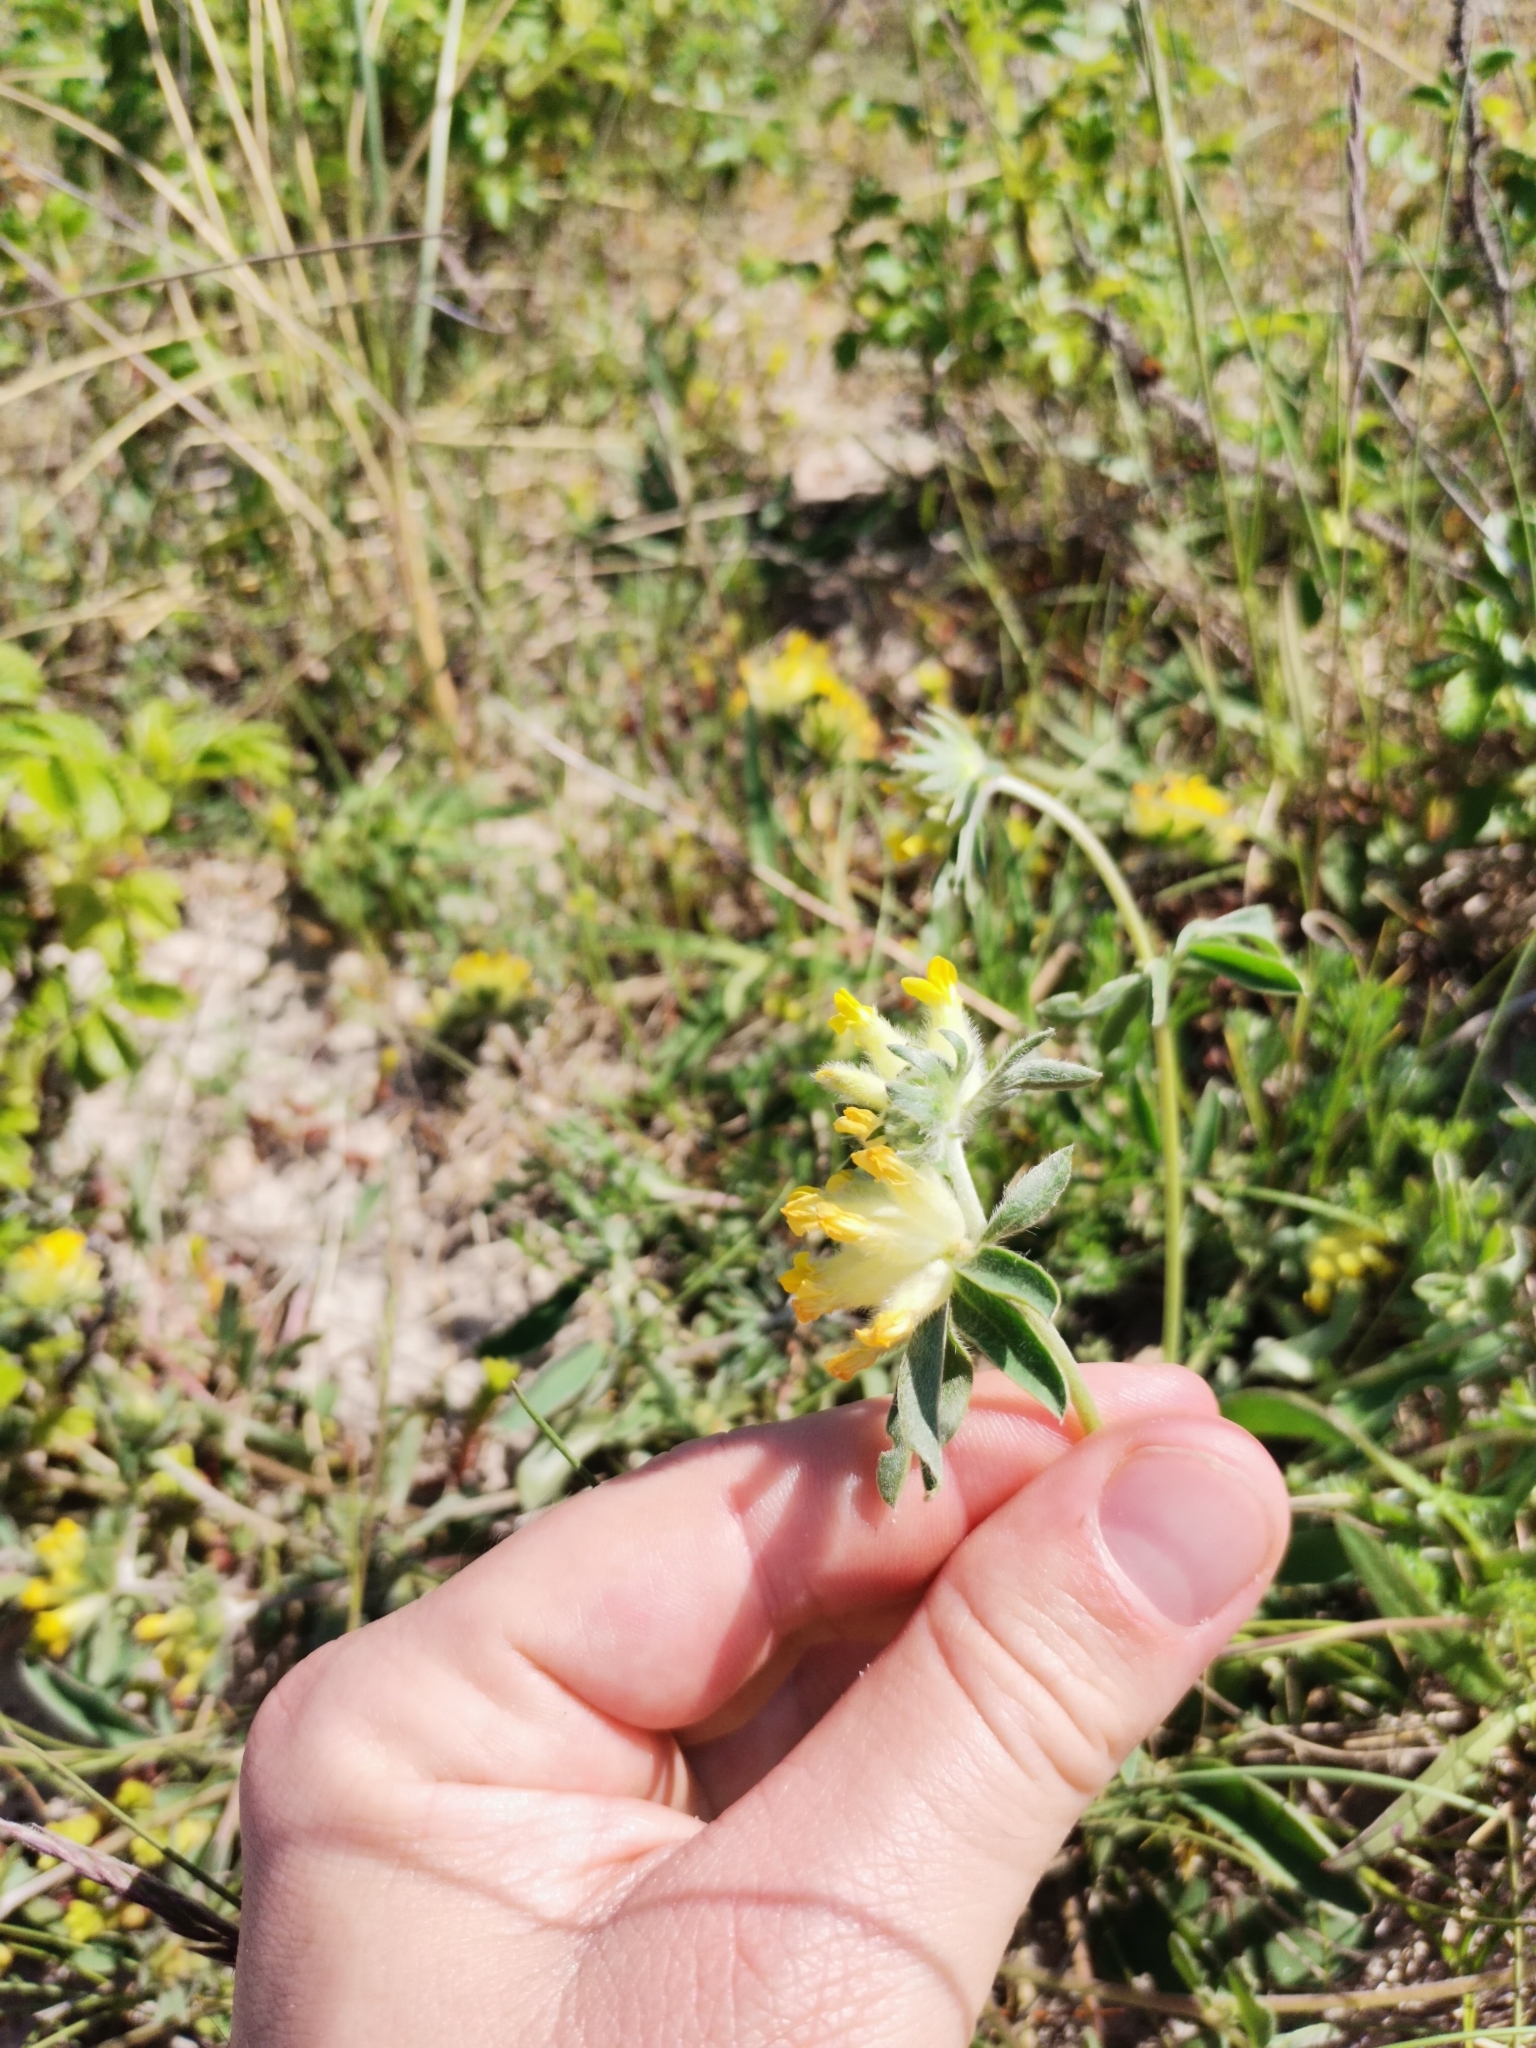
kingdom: Plantae
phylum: Tracheophyta
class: Magnoliopsida
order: Fabales
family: Fabaceae
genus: Anthyllis
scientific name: Anthyllis vulneraria
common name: Kidney vetch
